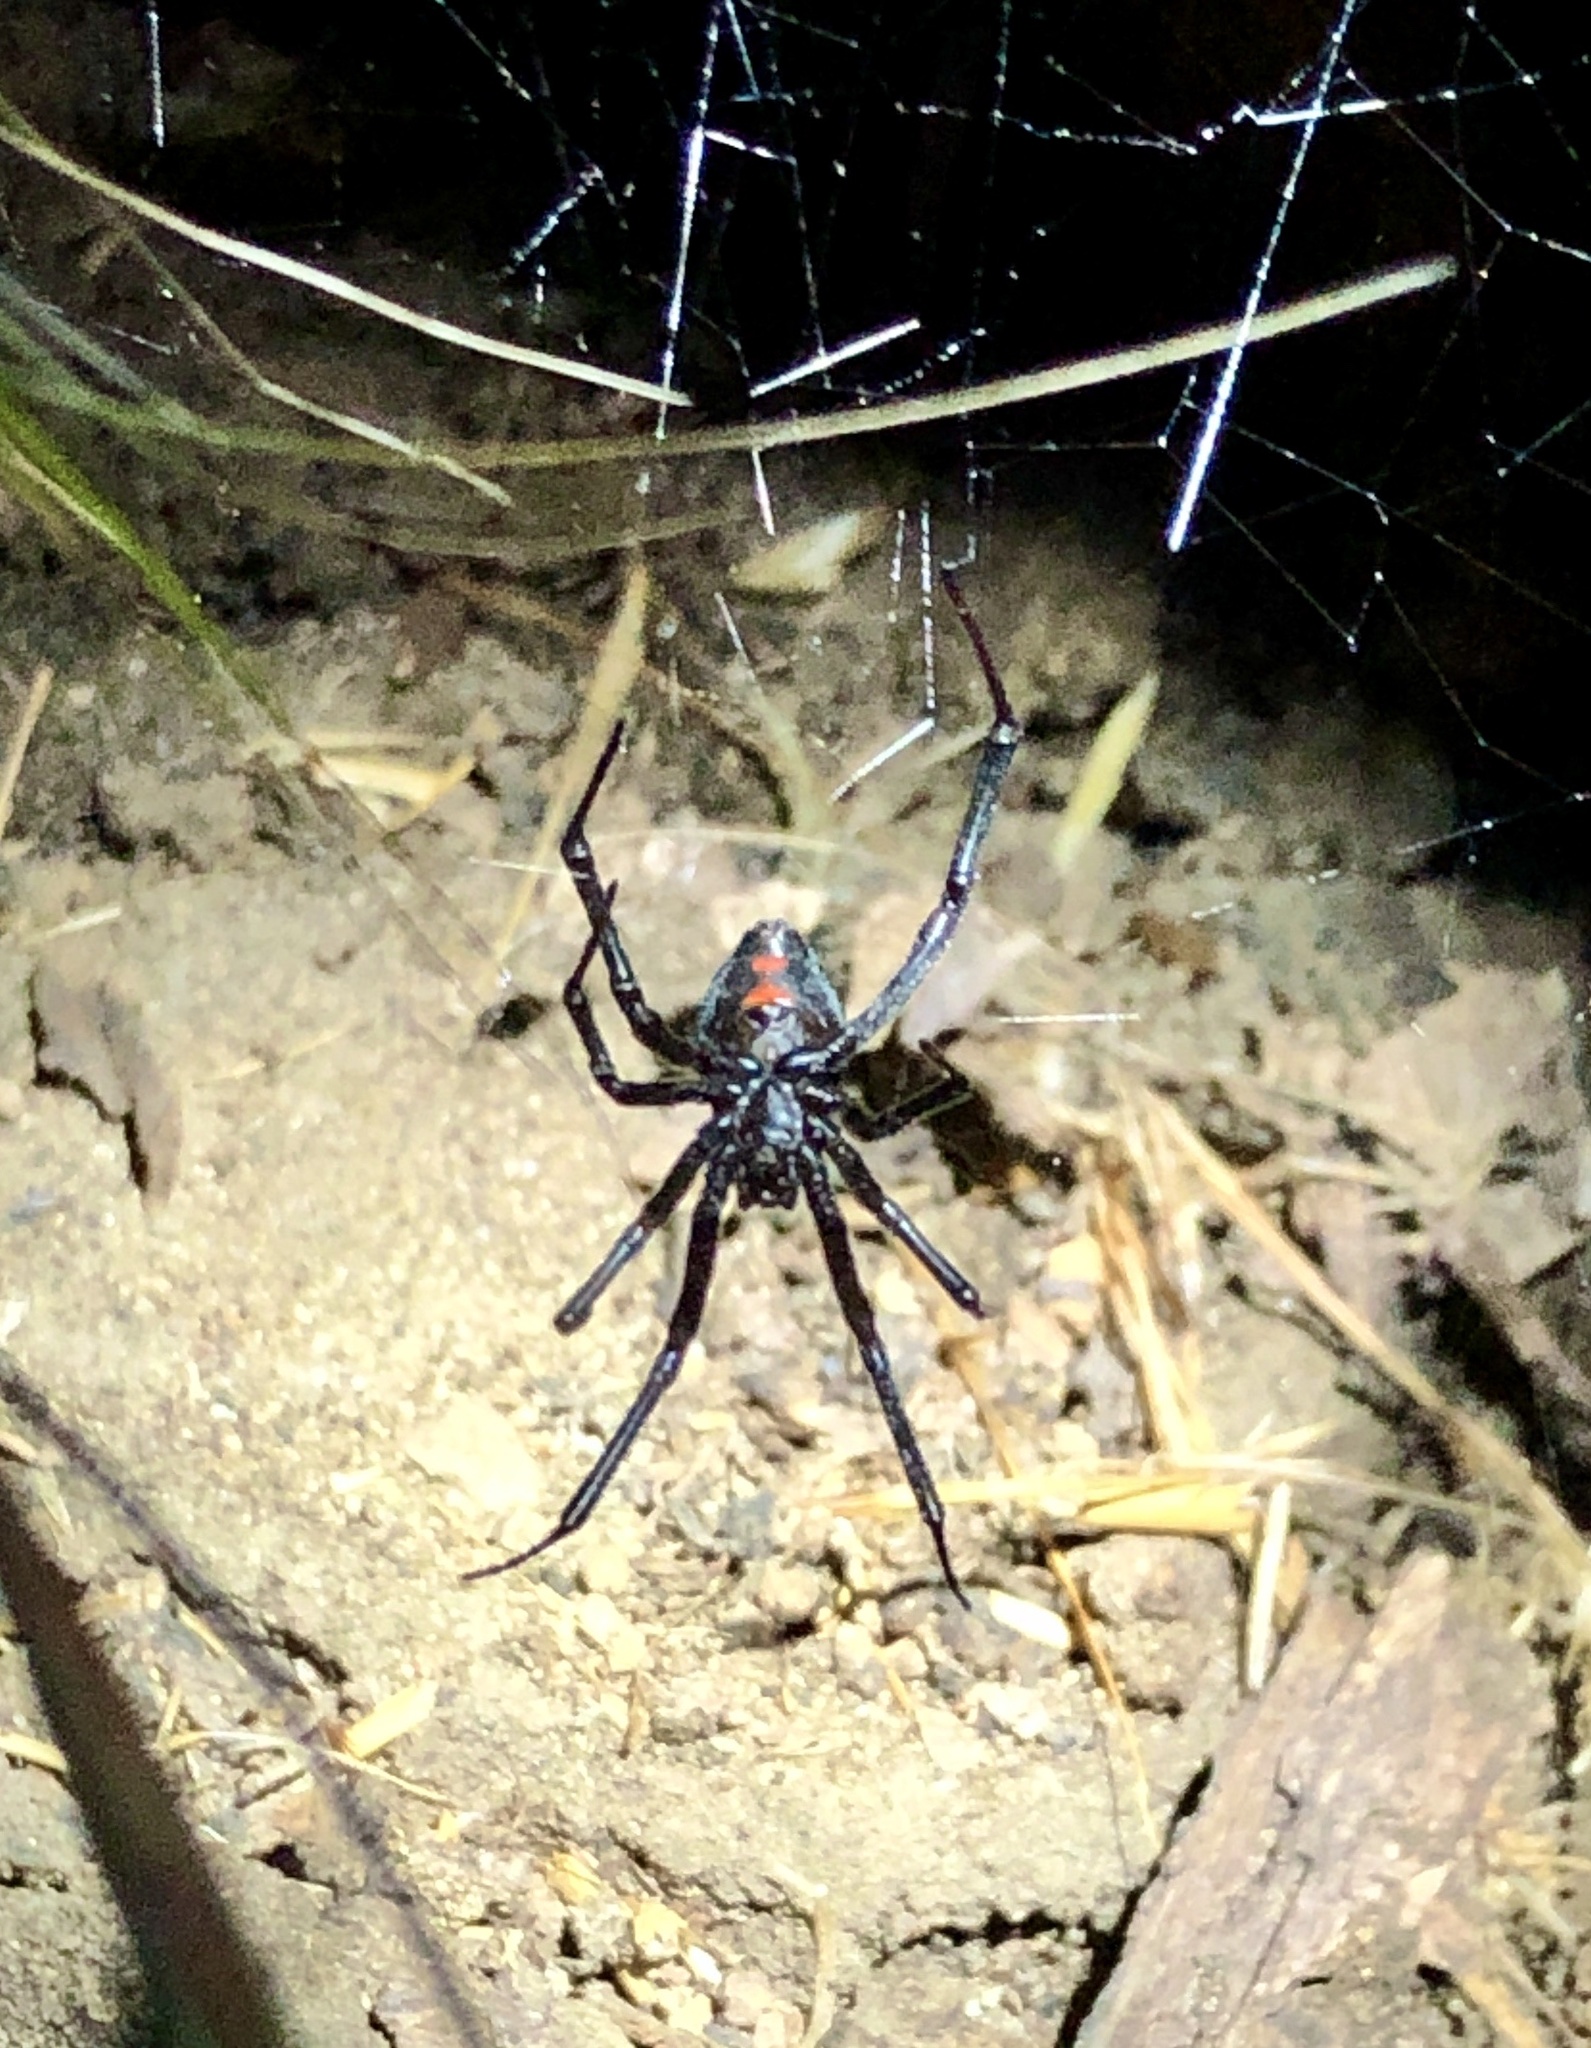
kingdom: Animalia
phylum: Arthropoda
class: Arachnida
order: Araneae
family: Theridiidae
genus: Latrodectus
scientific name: Latrodectus hesperus
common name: Western black widow
